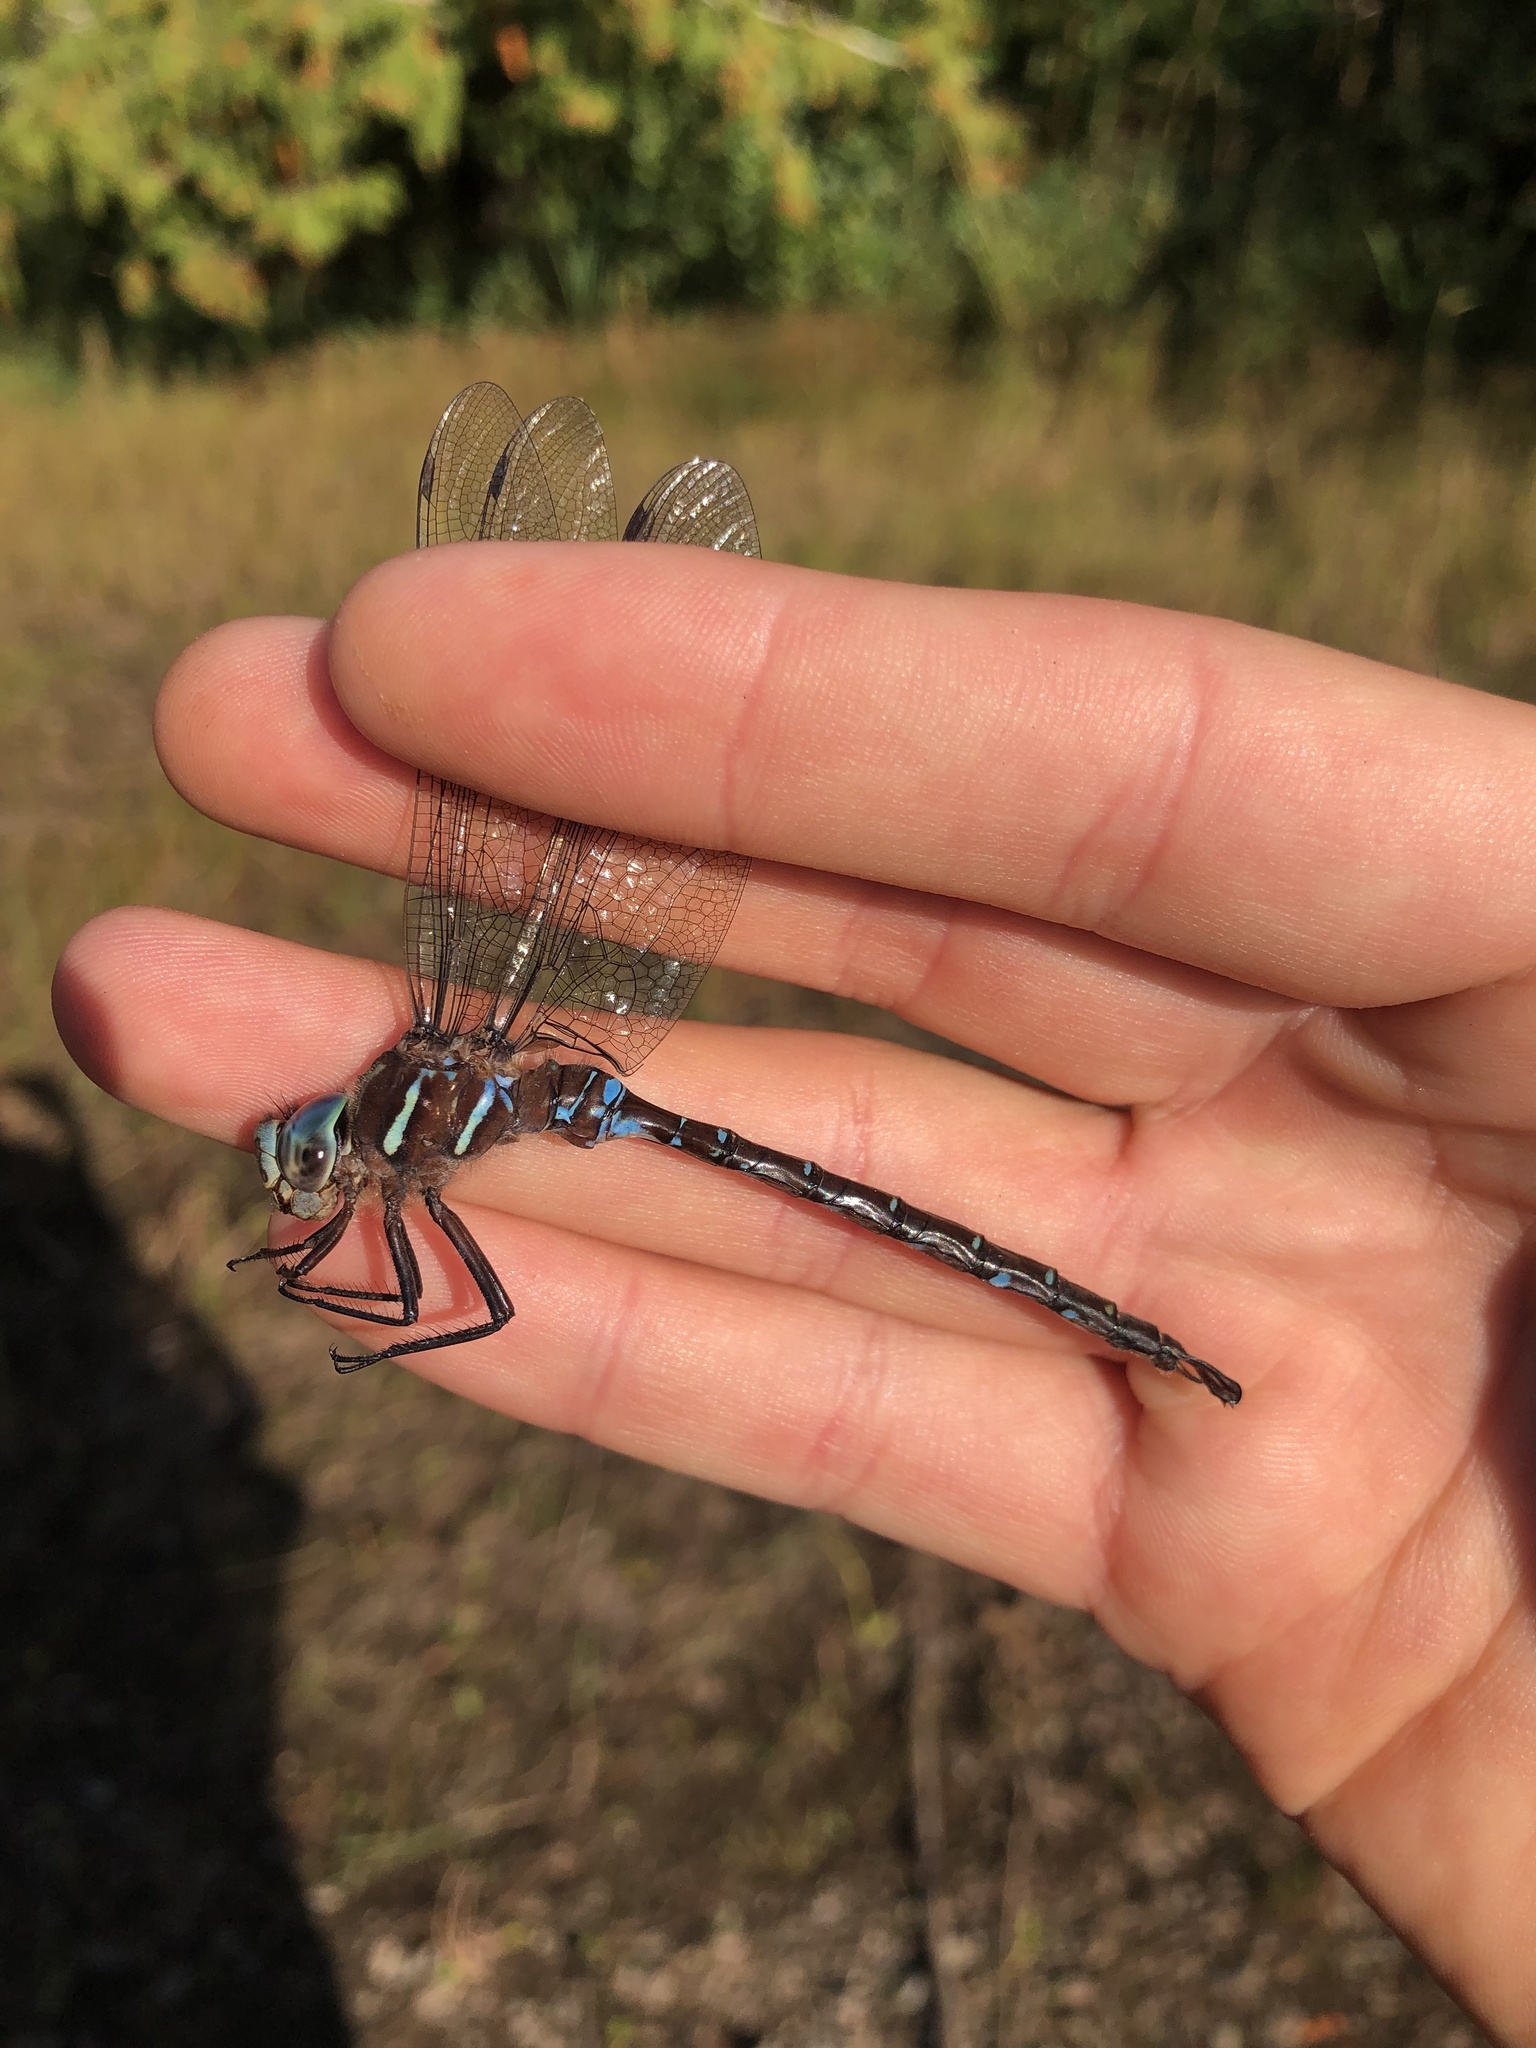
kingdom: Animalia
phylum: Arthropoda
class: Insecta
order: Odonata
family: Aeshnidae
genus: Aeshna
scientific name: Aeshna umbrosa
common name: Shadow darner
